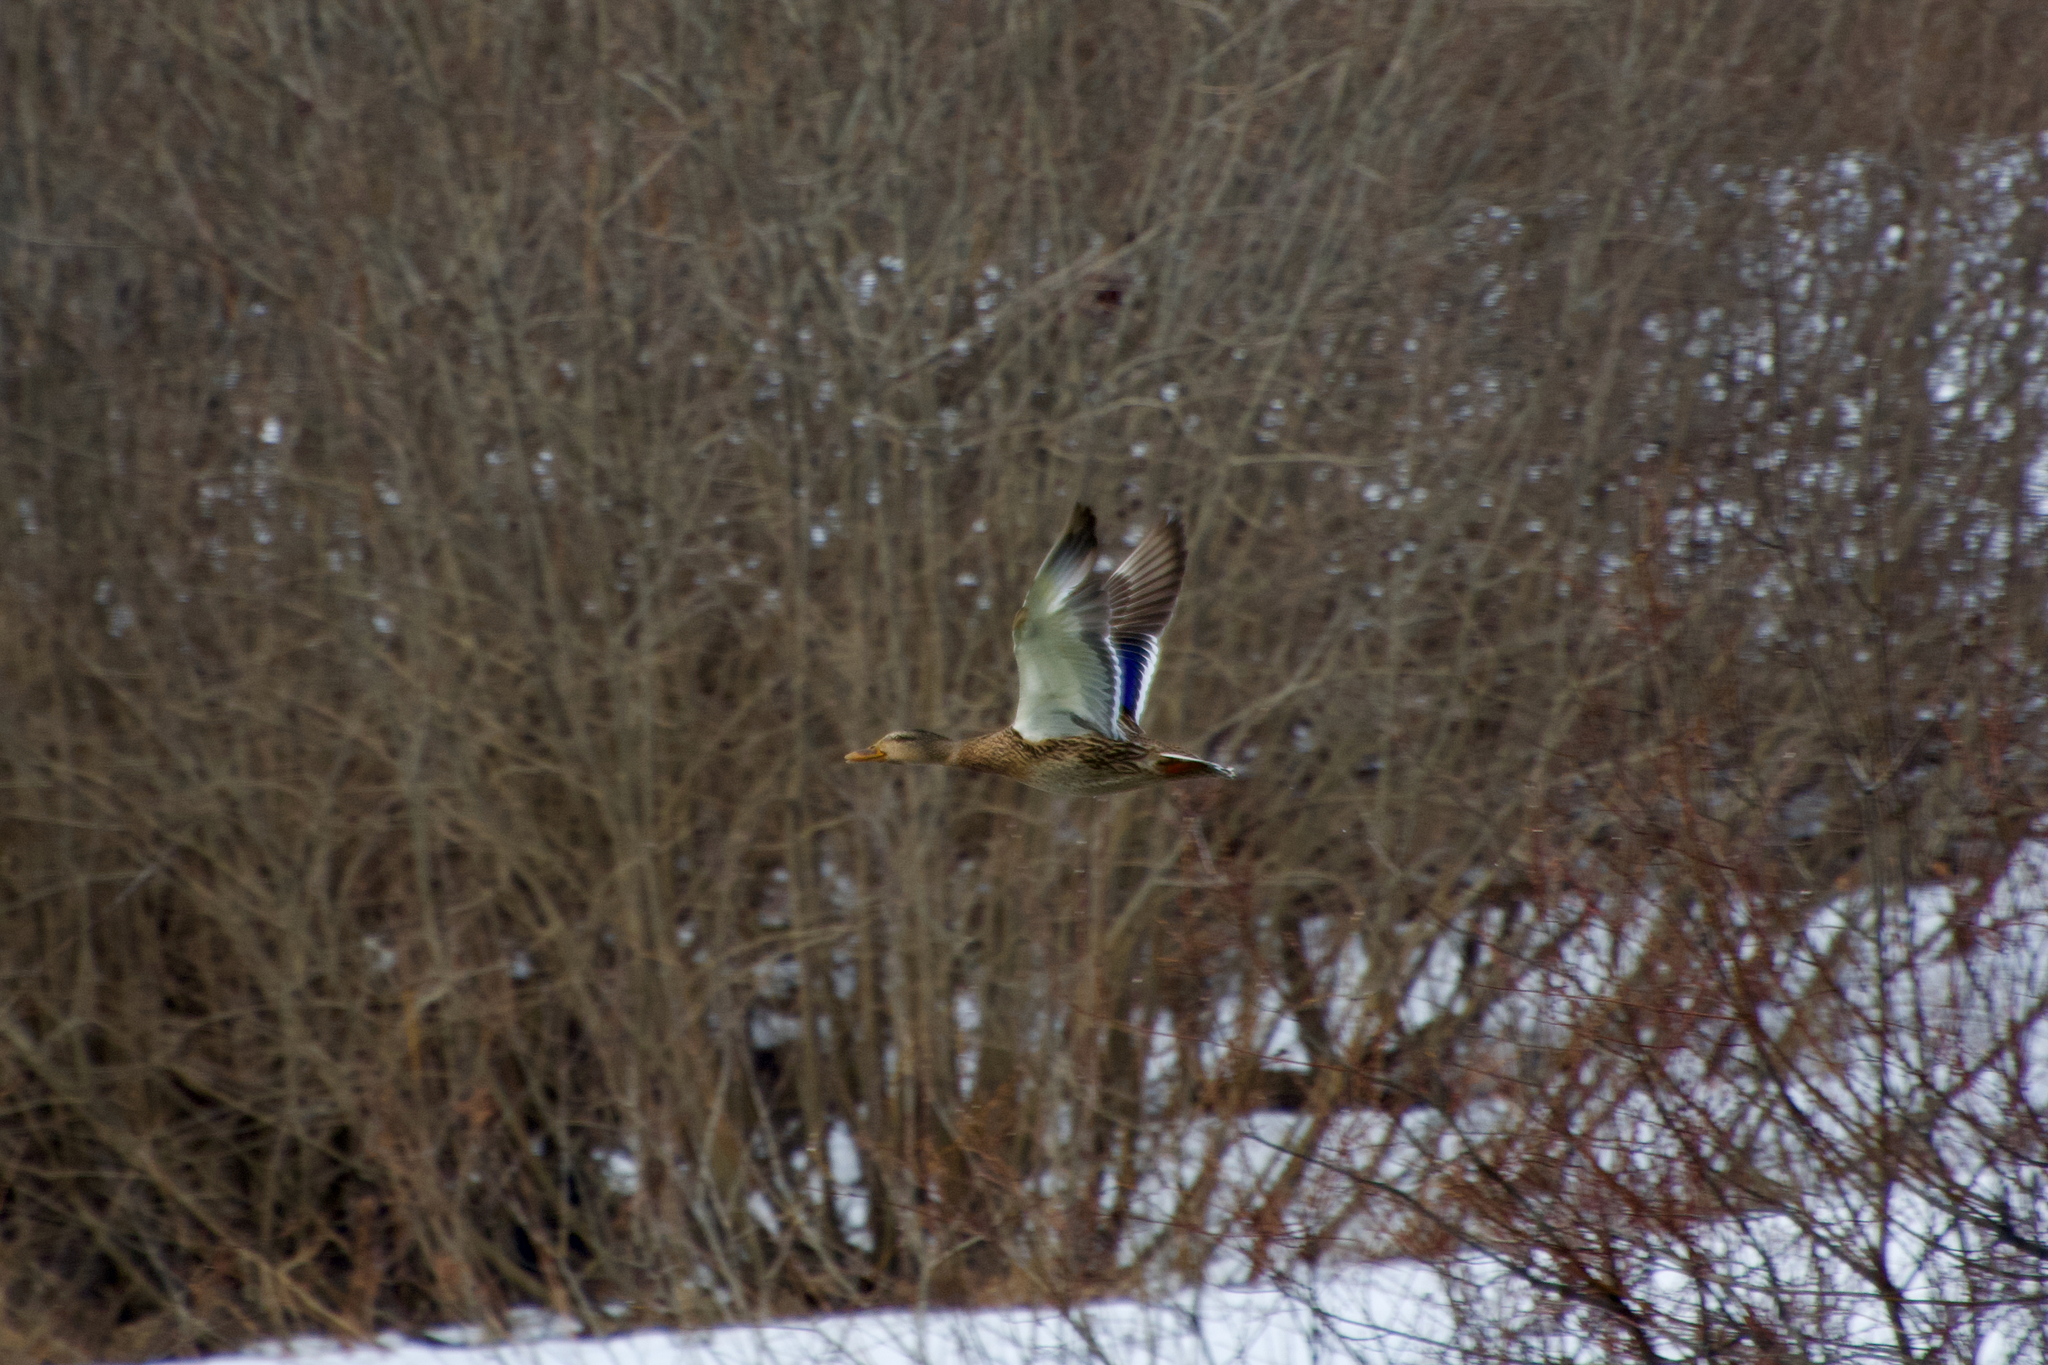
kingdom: Animalia
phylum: Chordata
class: Aves
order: Anseriformes
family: Anatidae
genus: Anas
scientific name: Anas platyrhynchos
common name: Mallard
